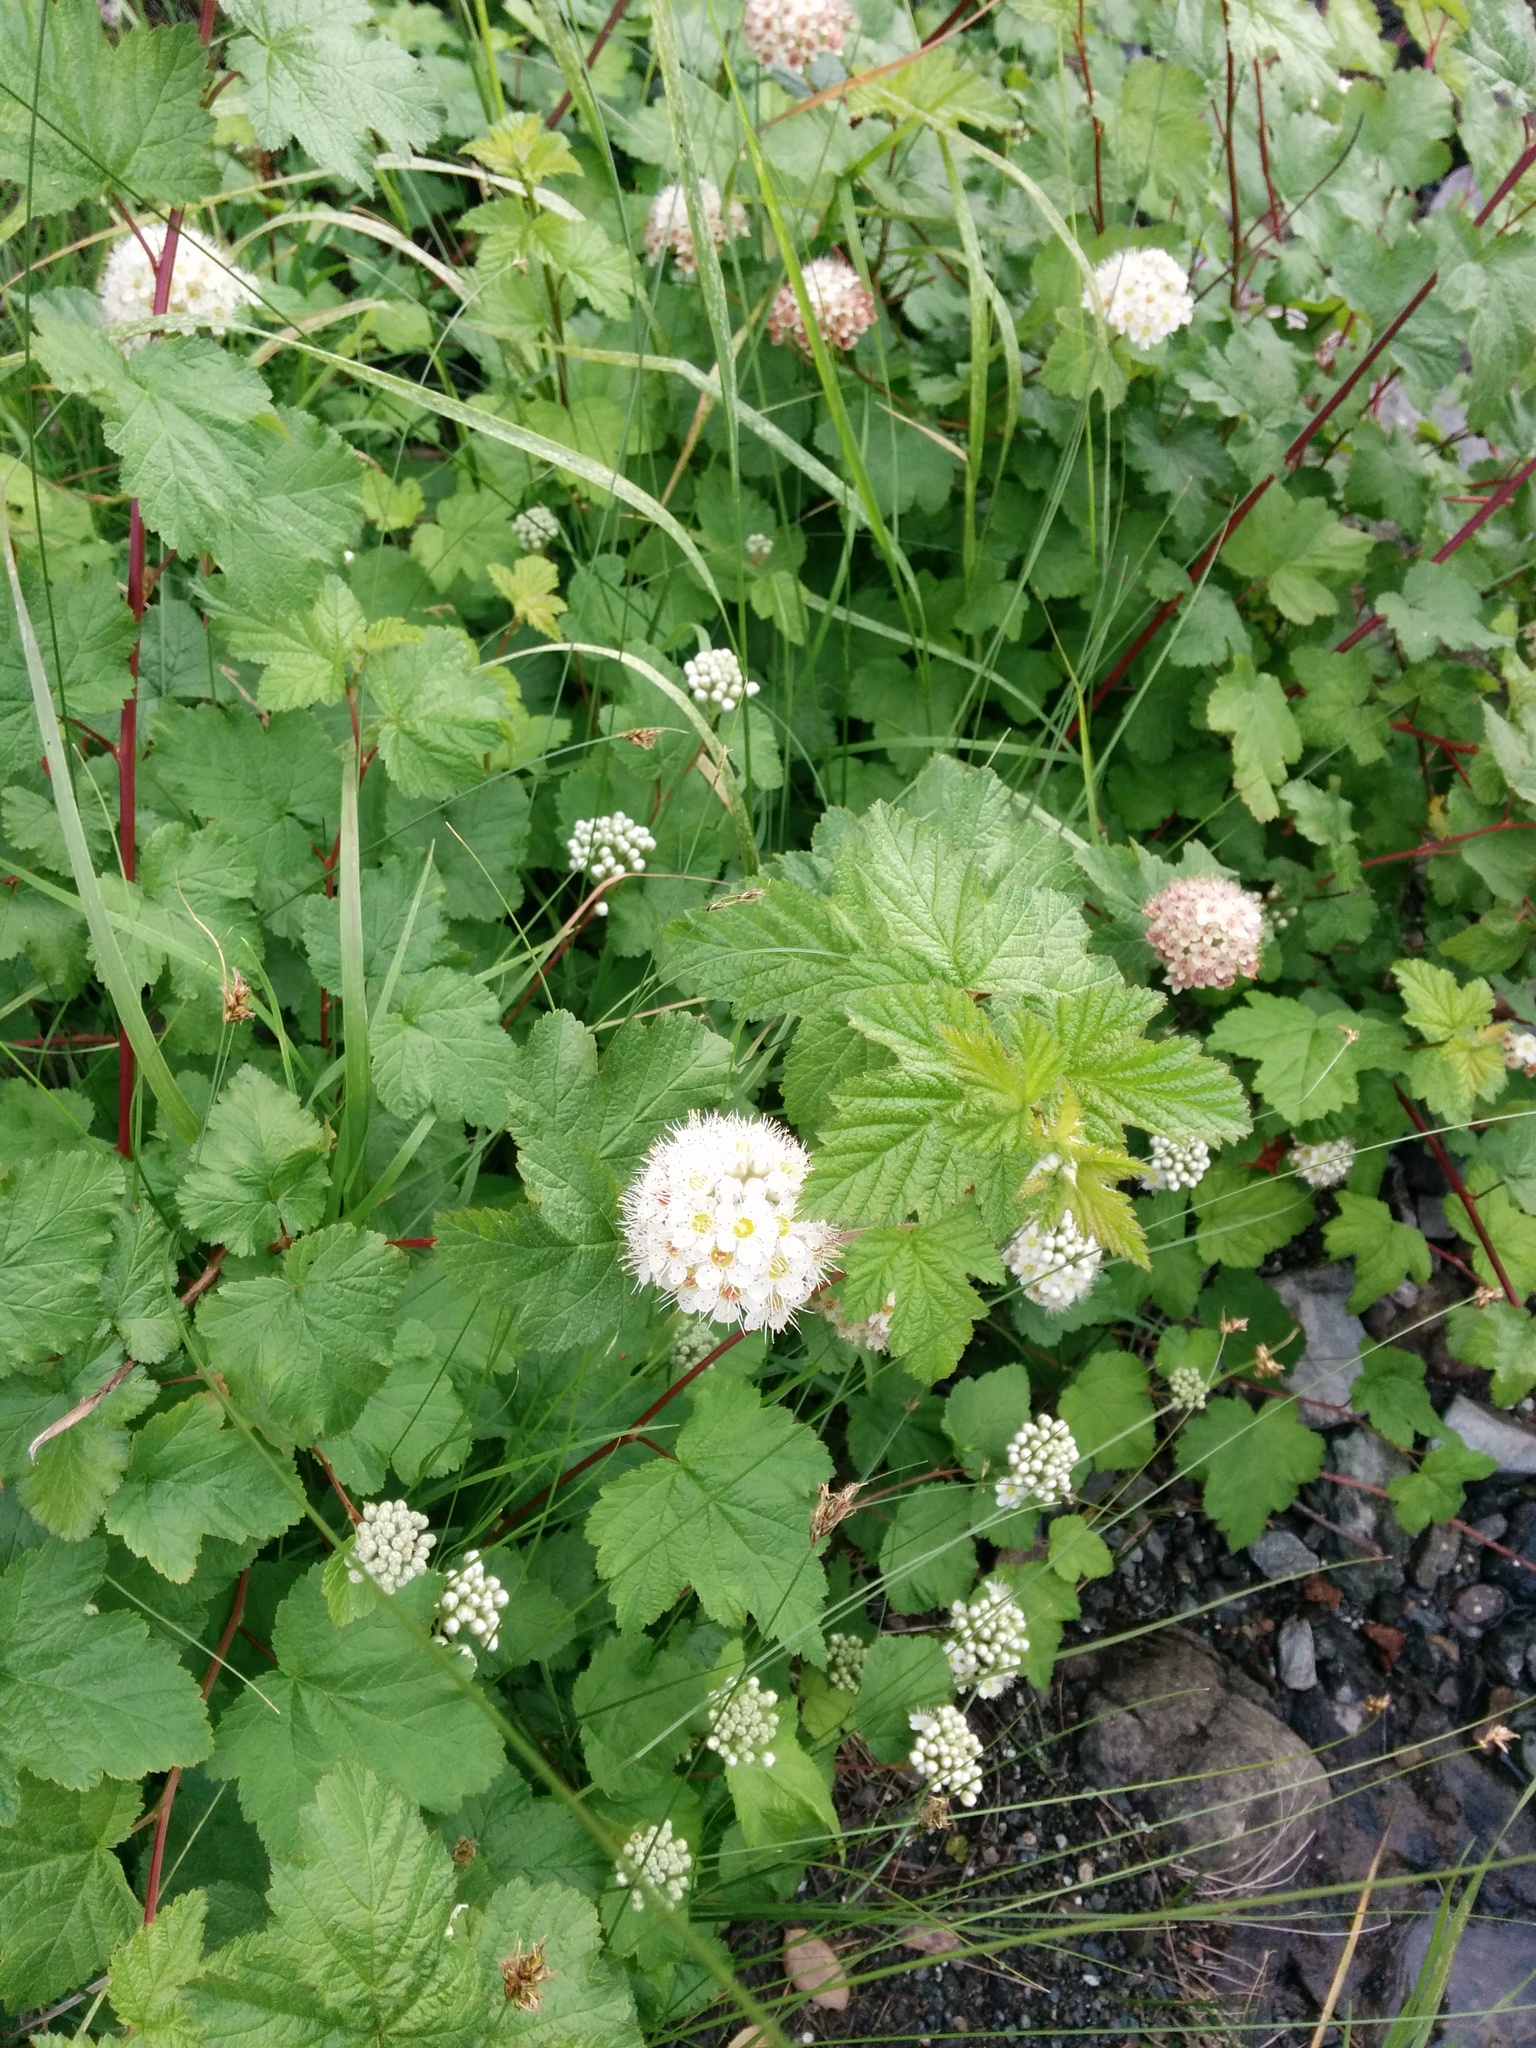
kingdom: Plantae
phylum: Tracheophyta
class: Magnoliopsida
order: Rosales
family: Rosaceae
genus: Physocarpus
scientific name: Physocarpus capitatus
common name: Pacific ninebark
